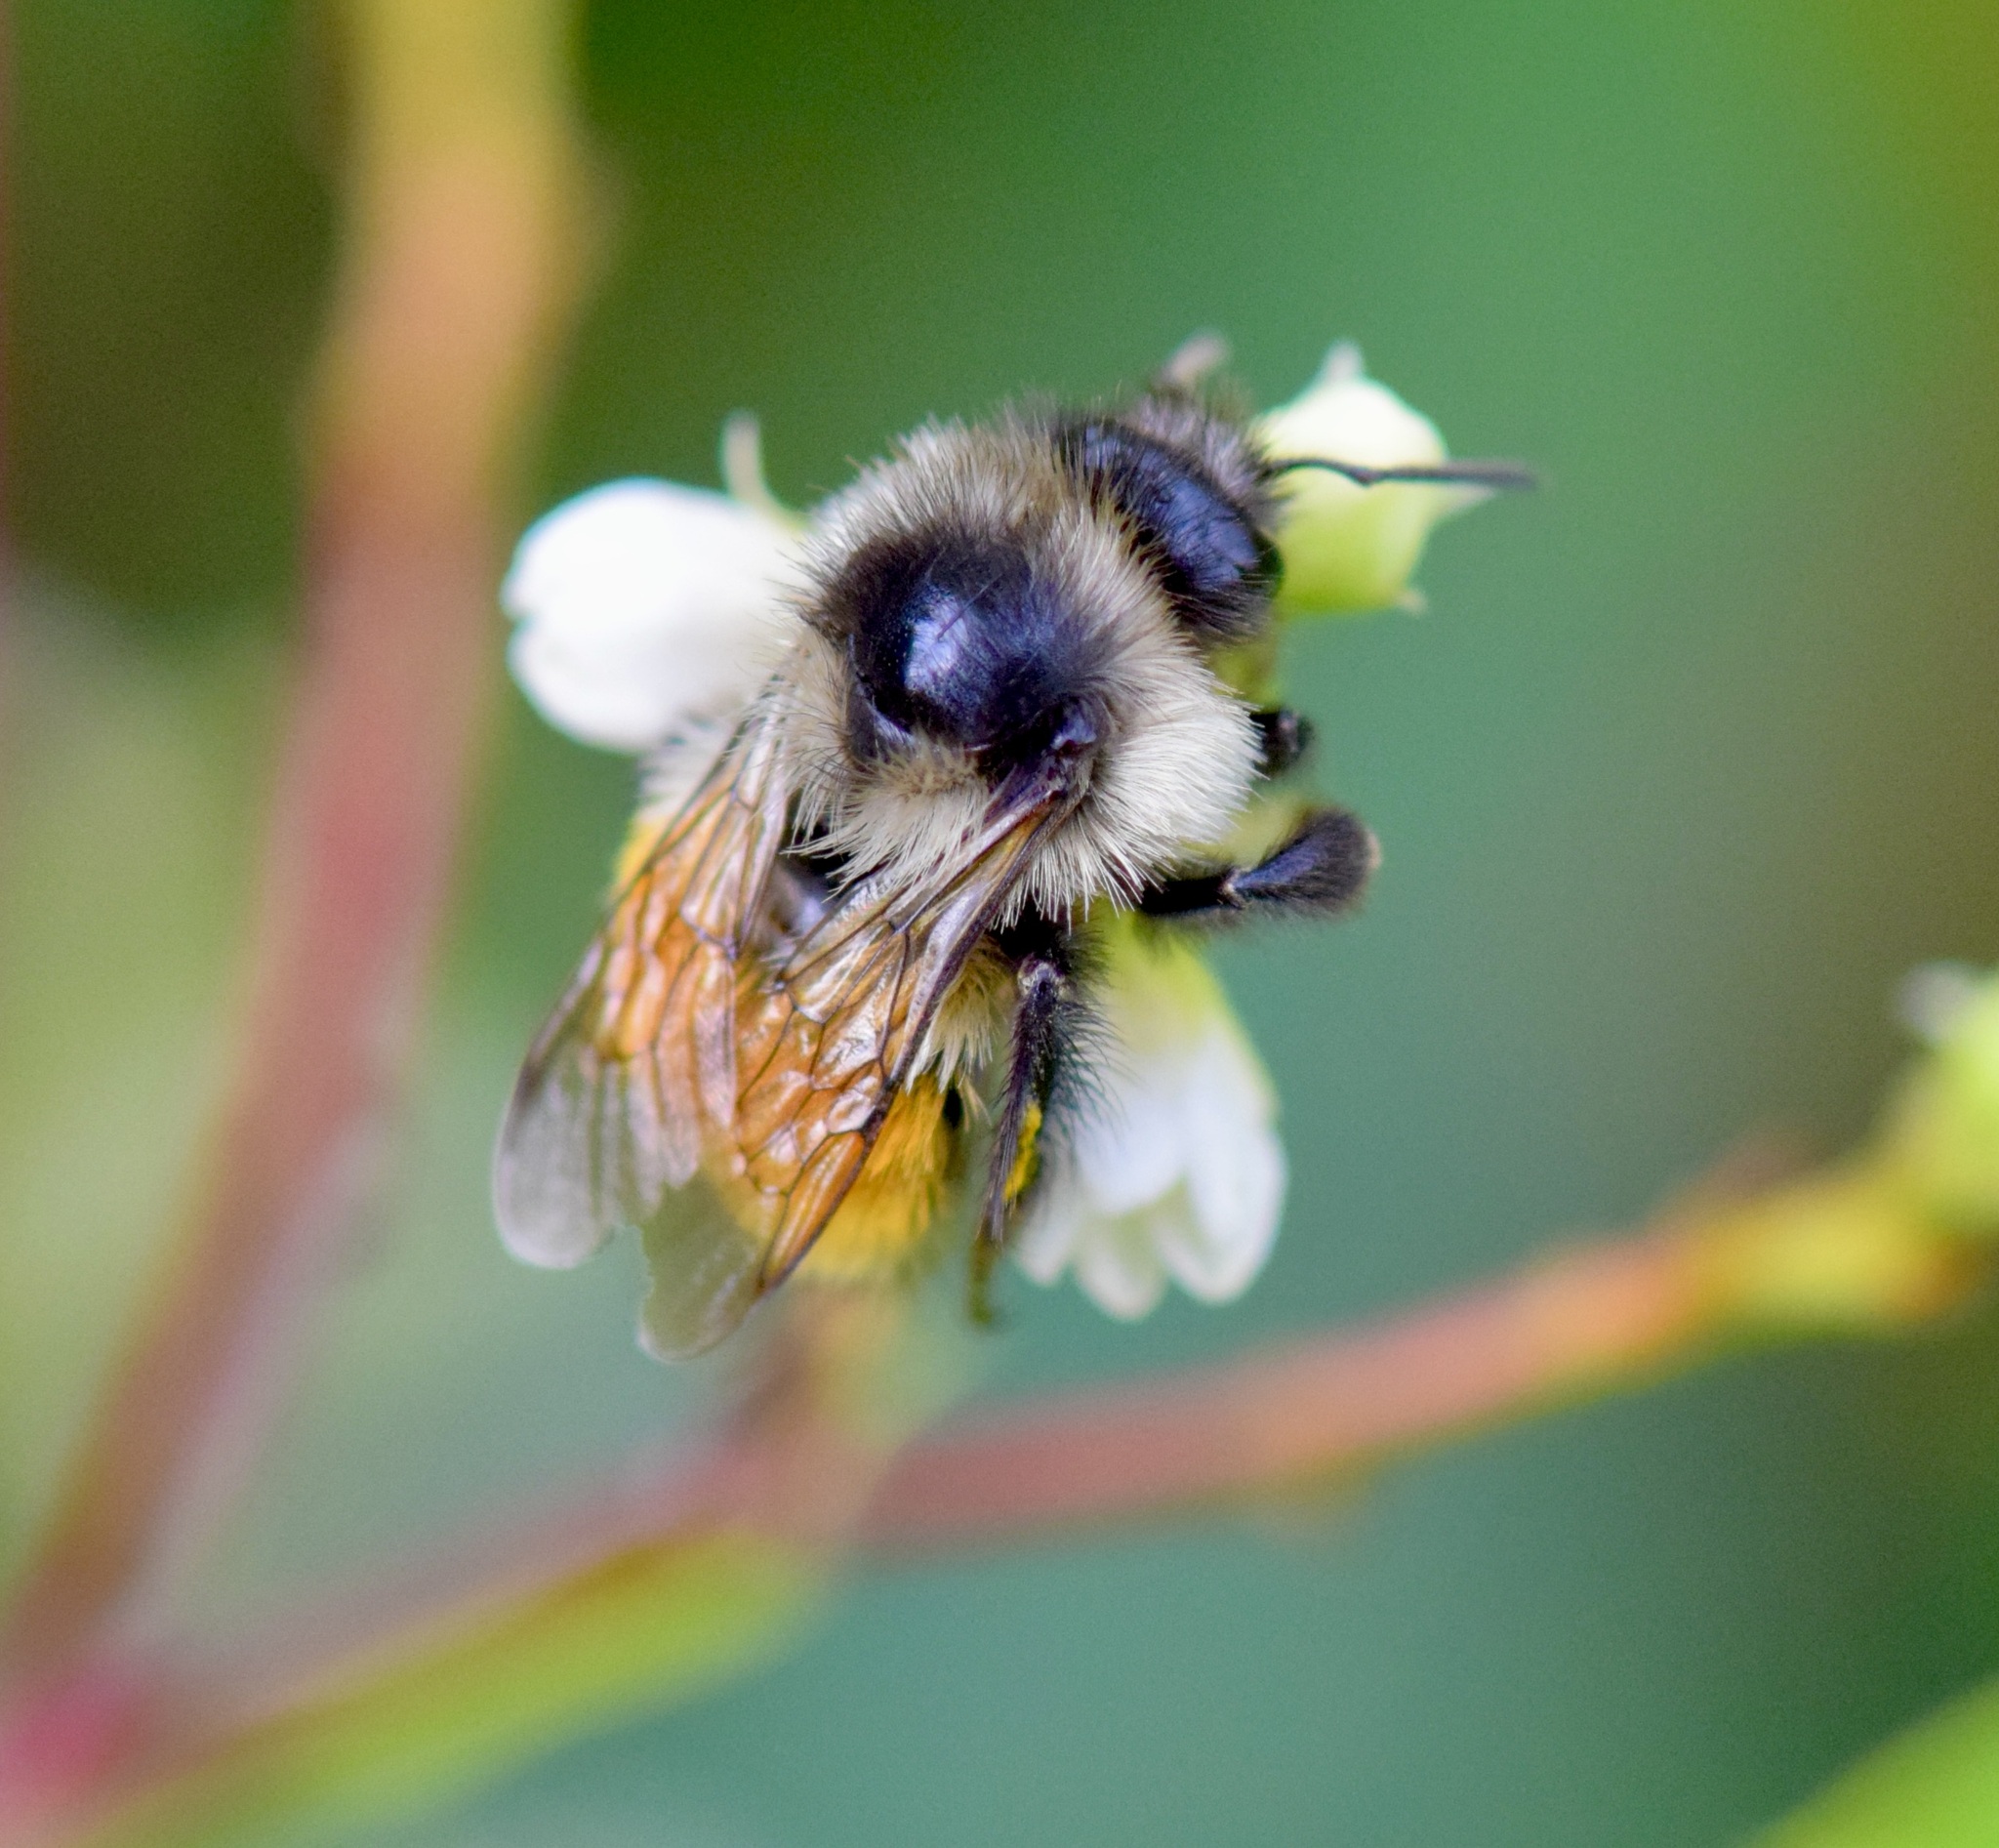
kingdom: Animalia
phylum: Arthropoda
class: Insecta
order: Hymenoptera
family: Apidae
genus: Bombus
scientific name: Bombus ternarius
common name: Tri-colored bumble bee
